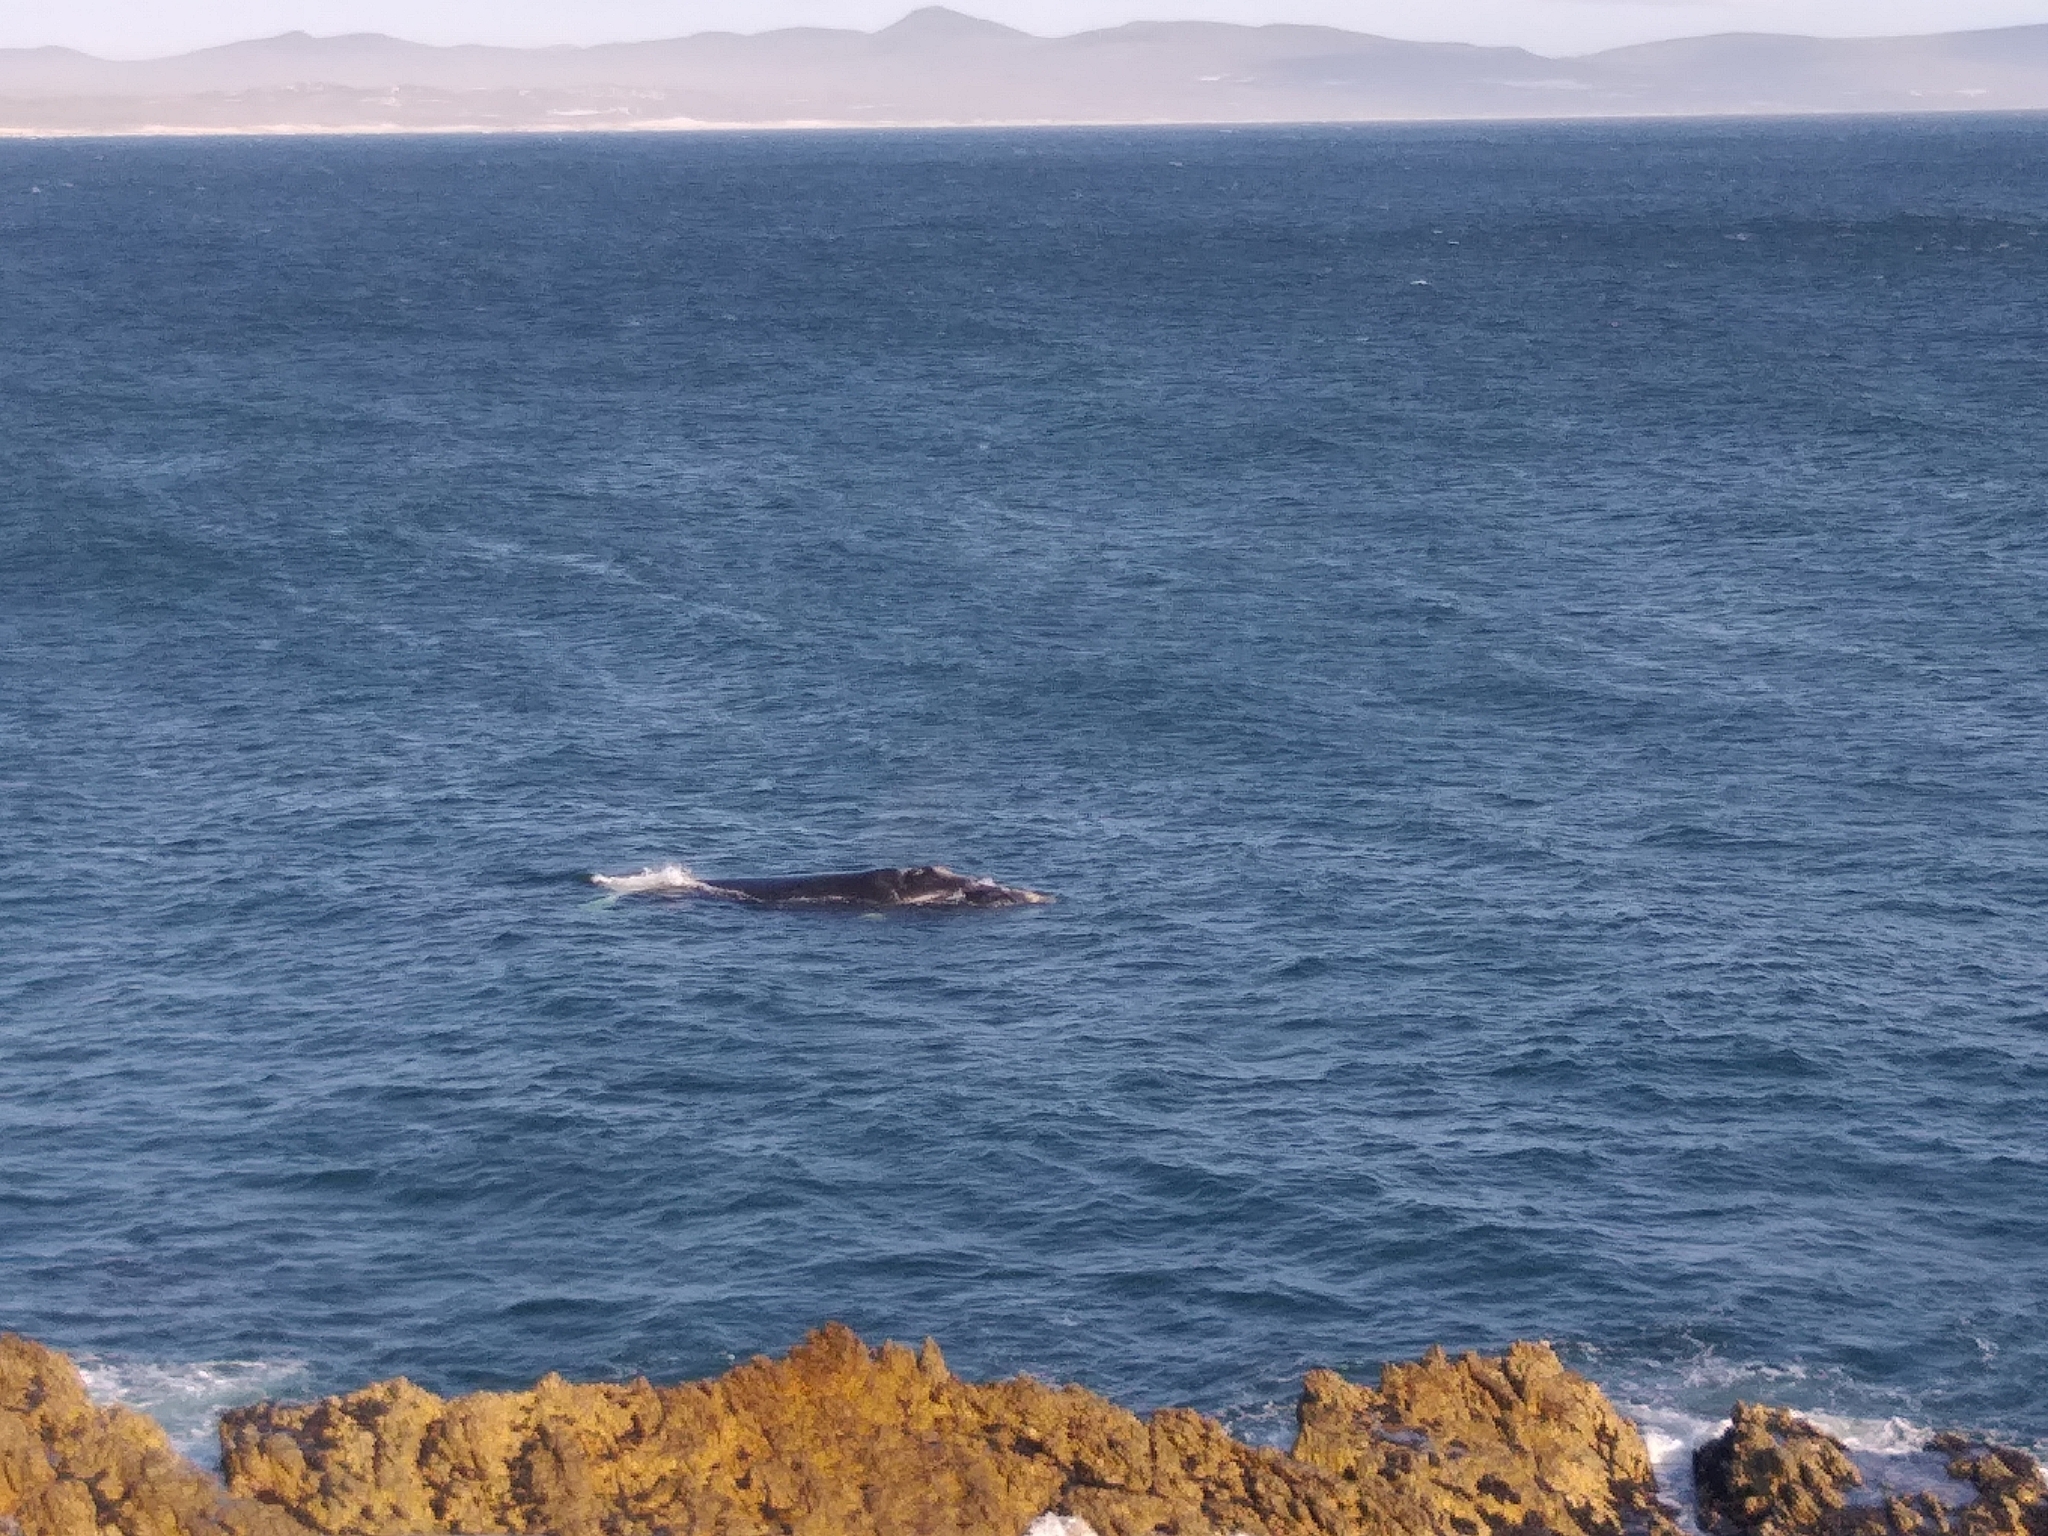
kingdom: Animalia
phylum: Chordata
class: Mammalia
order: Cetacea
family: Balaenidae
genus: Eubalaena
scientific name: Eubalaena australis
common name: Southern right whale
